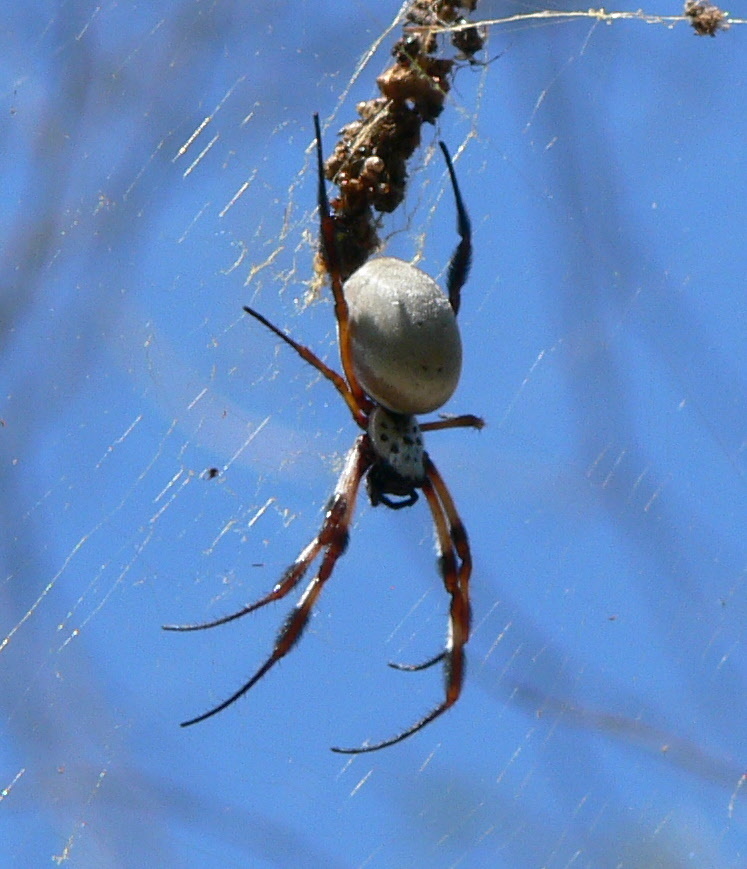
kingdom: Animalia
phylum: Arthropoda
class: Arachnida
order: Araneae
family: Araneidae
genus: Trichonephila
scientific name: Trichonephila edulis
